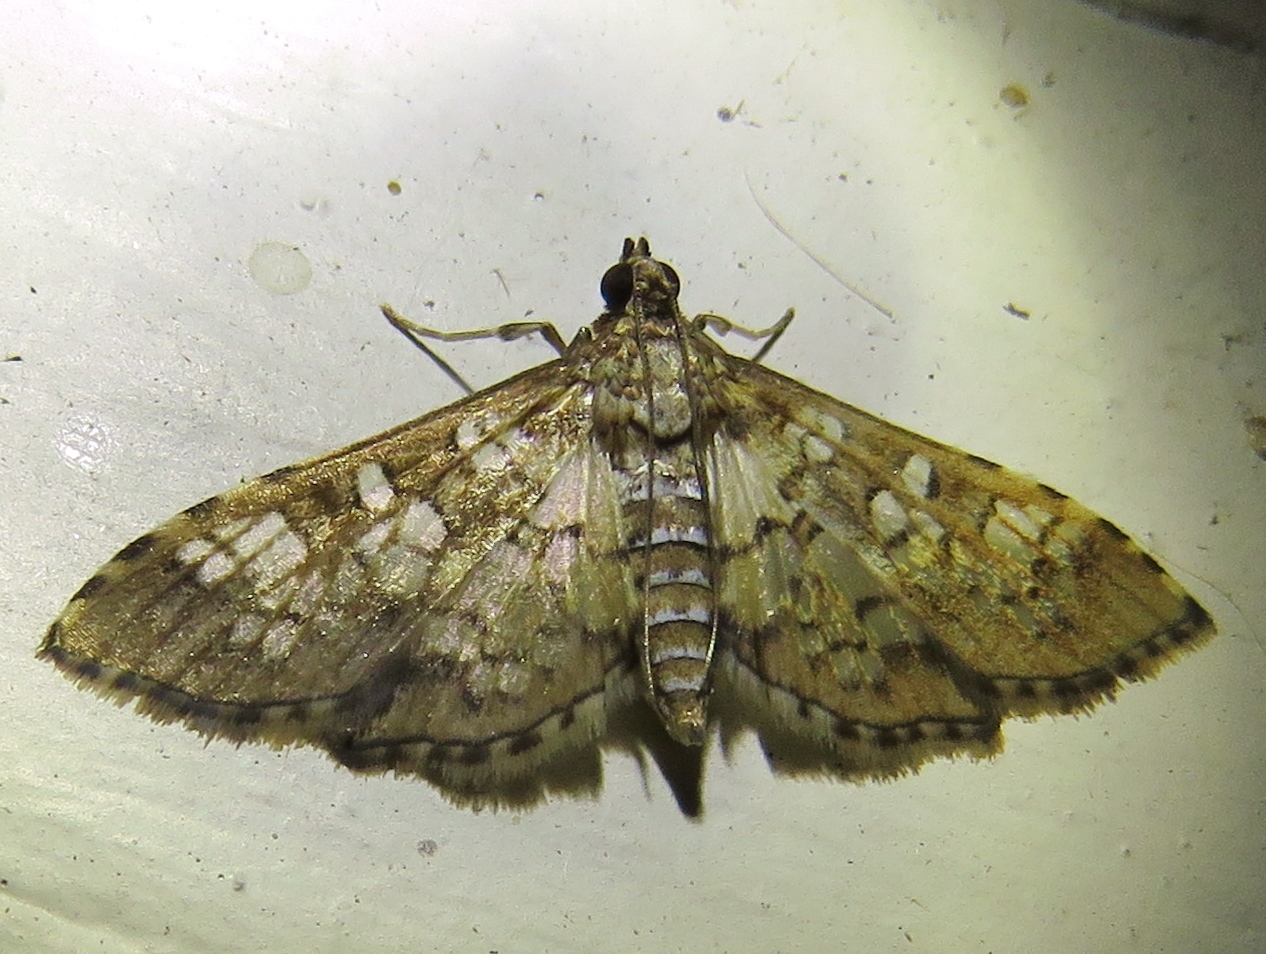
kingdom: Animalia
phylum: Arthropoda
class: Insecta
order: Lepidoptera
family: Crambidae
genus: Samea
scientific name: Samea ecclesialis
